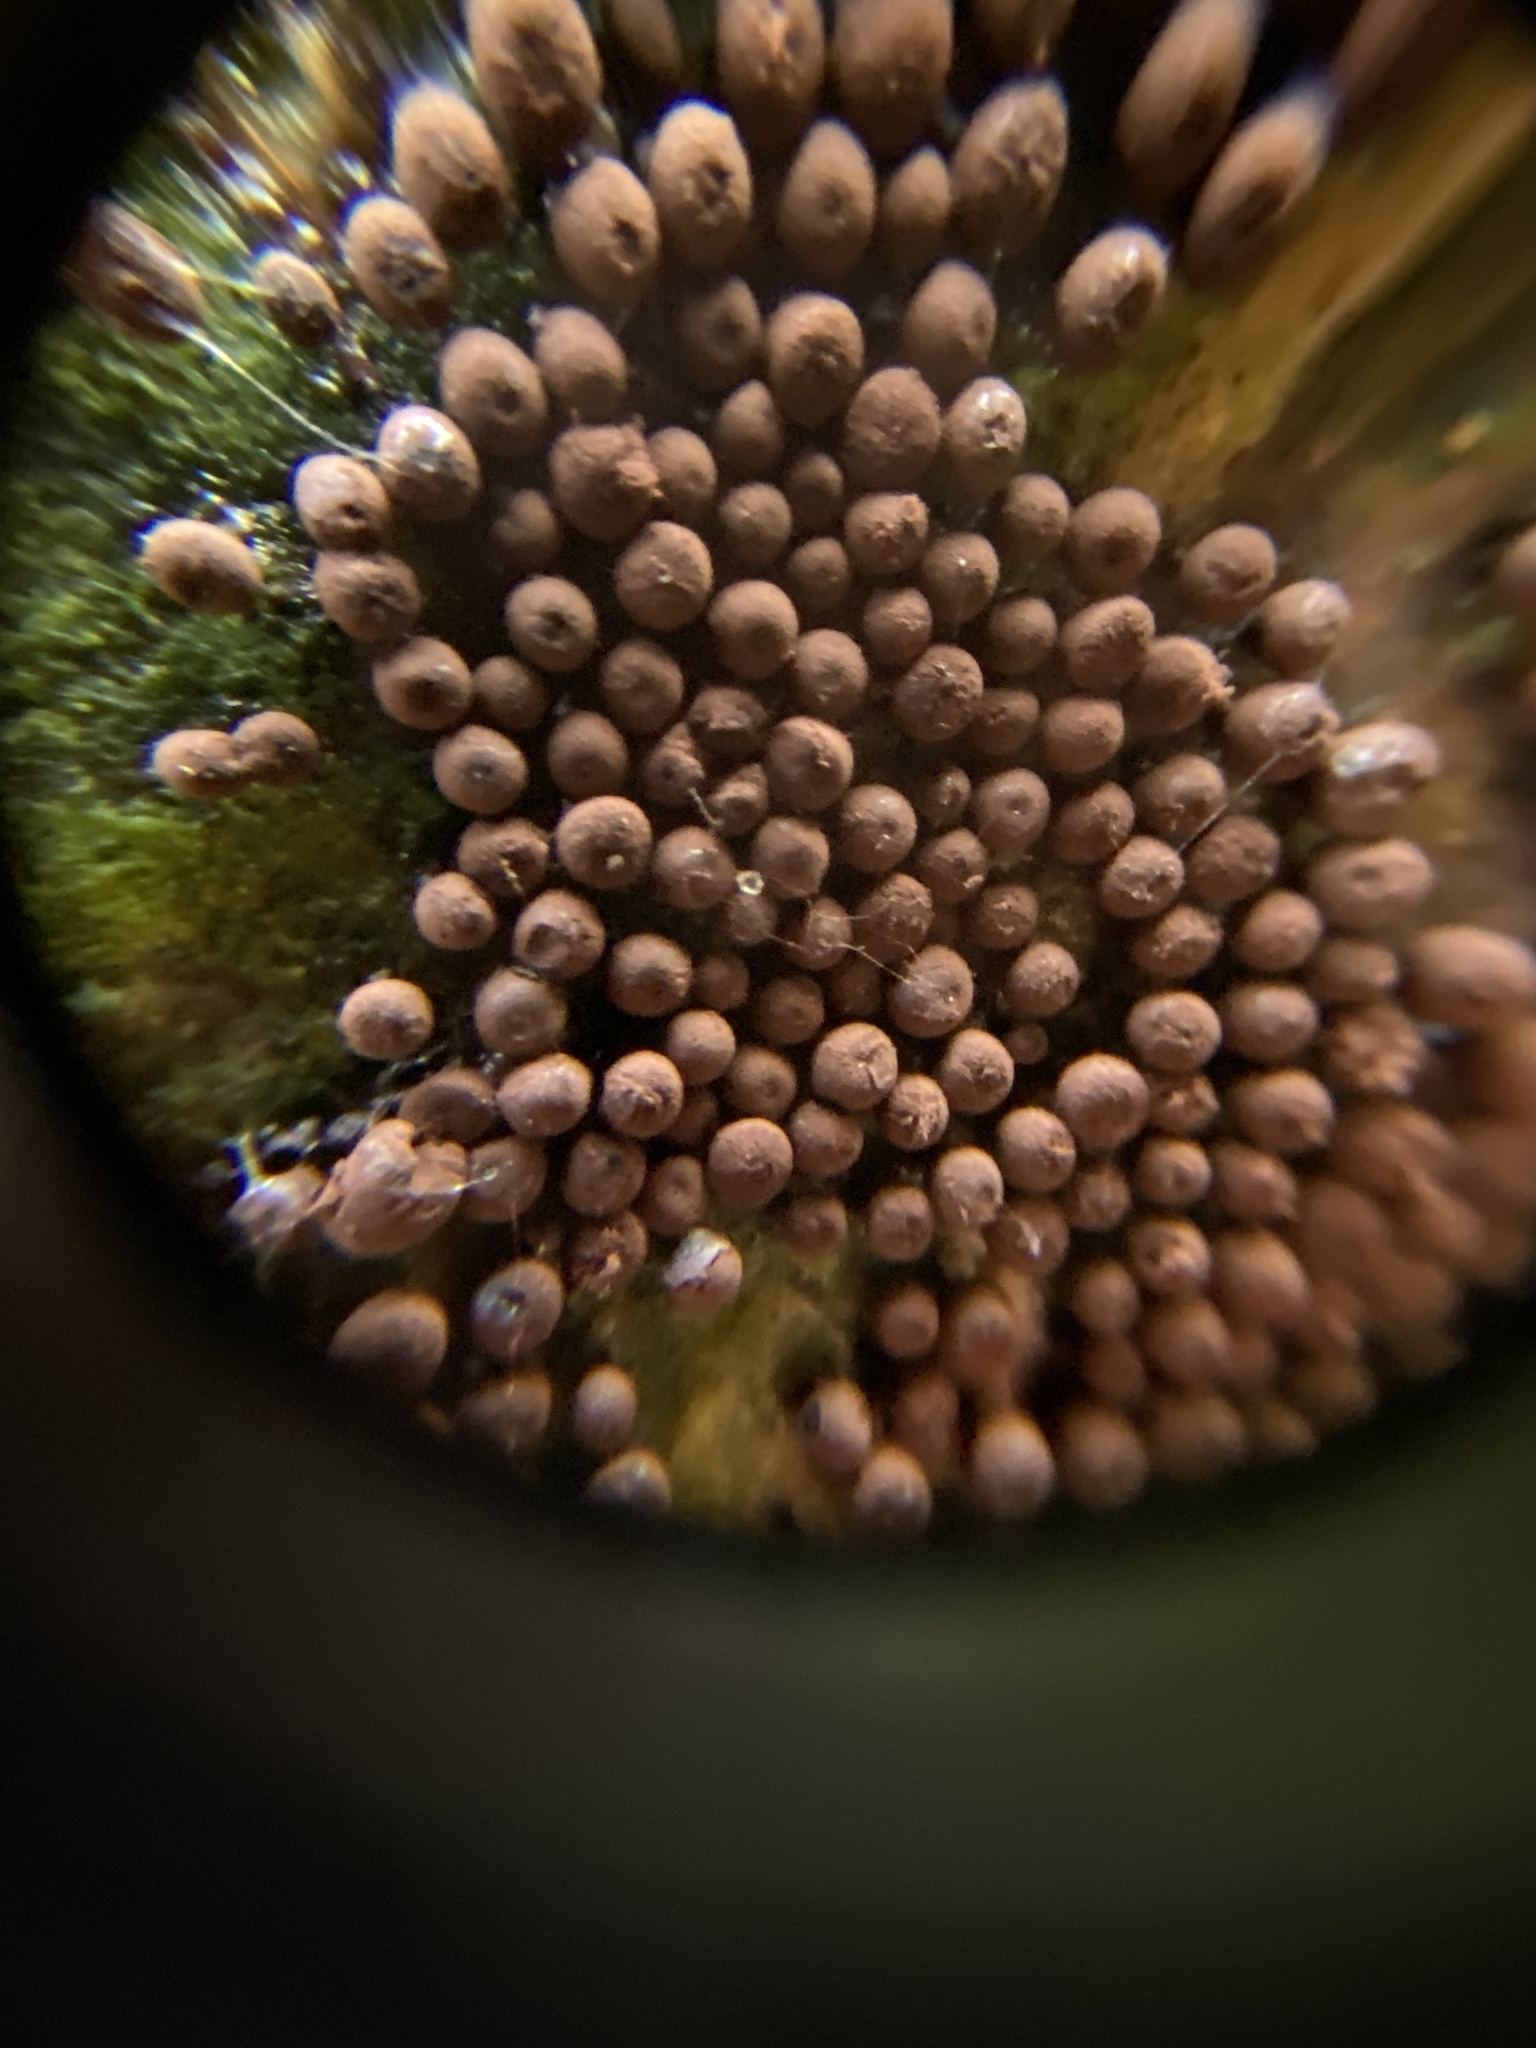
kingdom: Protozoa
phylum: Mycetozoa
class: Myxomycetes
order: Stemonitidales
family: Stemonitidaceae
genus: Enerthenema
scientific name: Enerthenema papillatum
